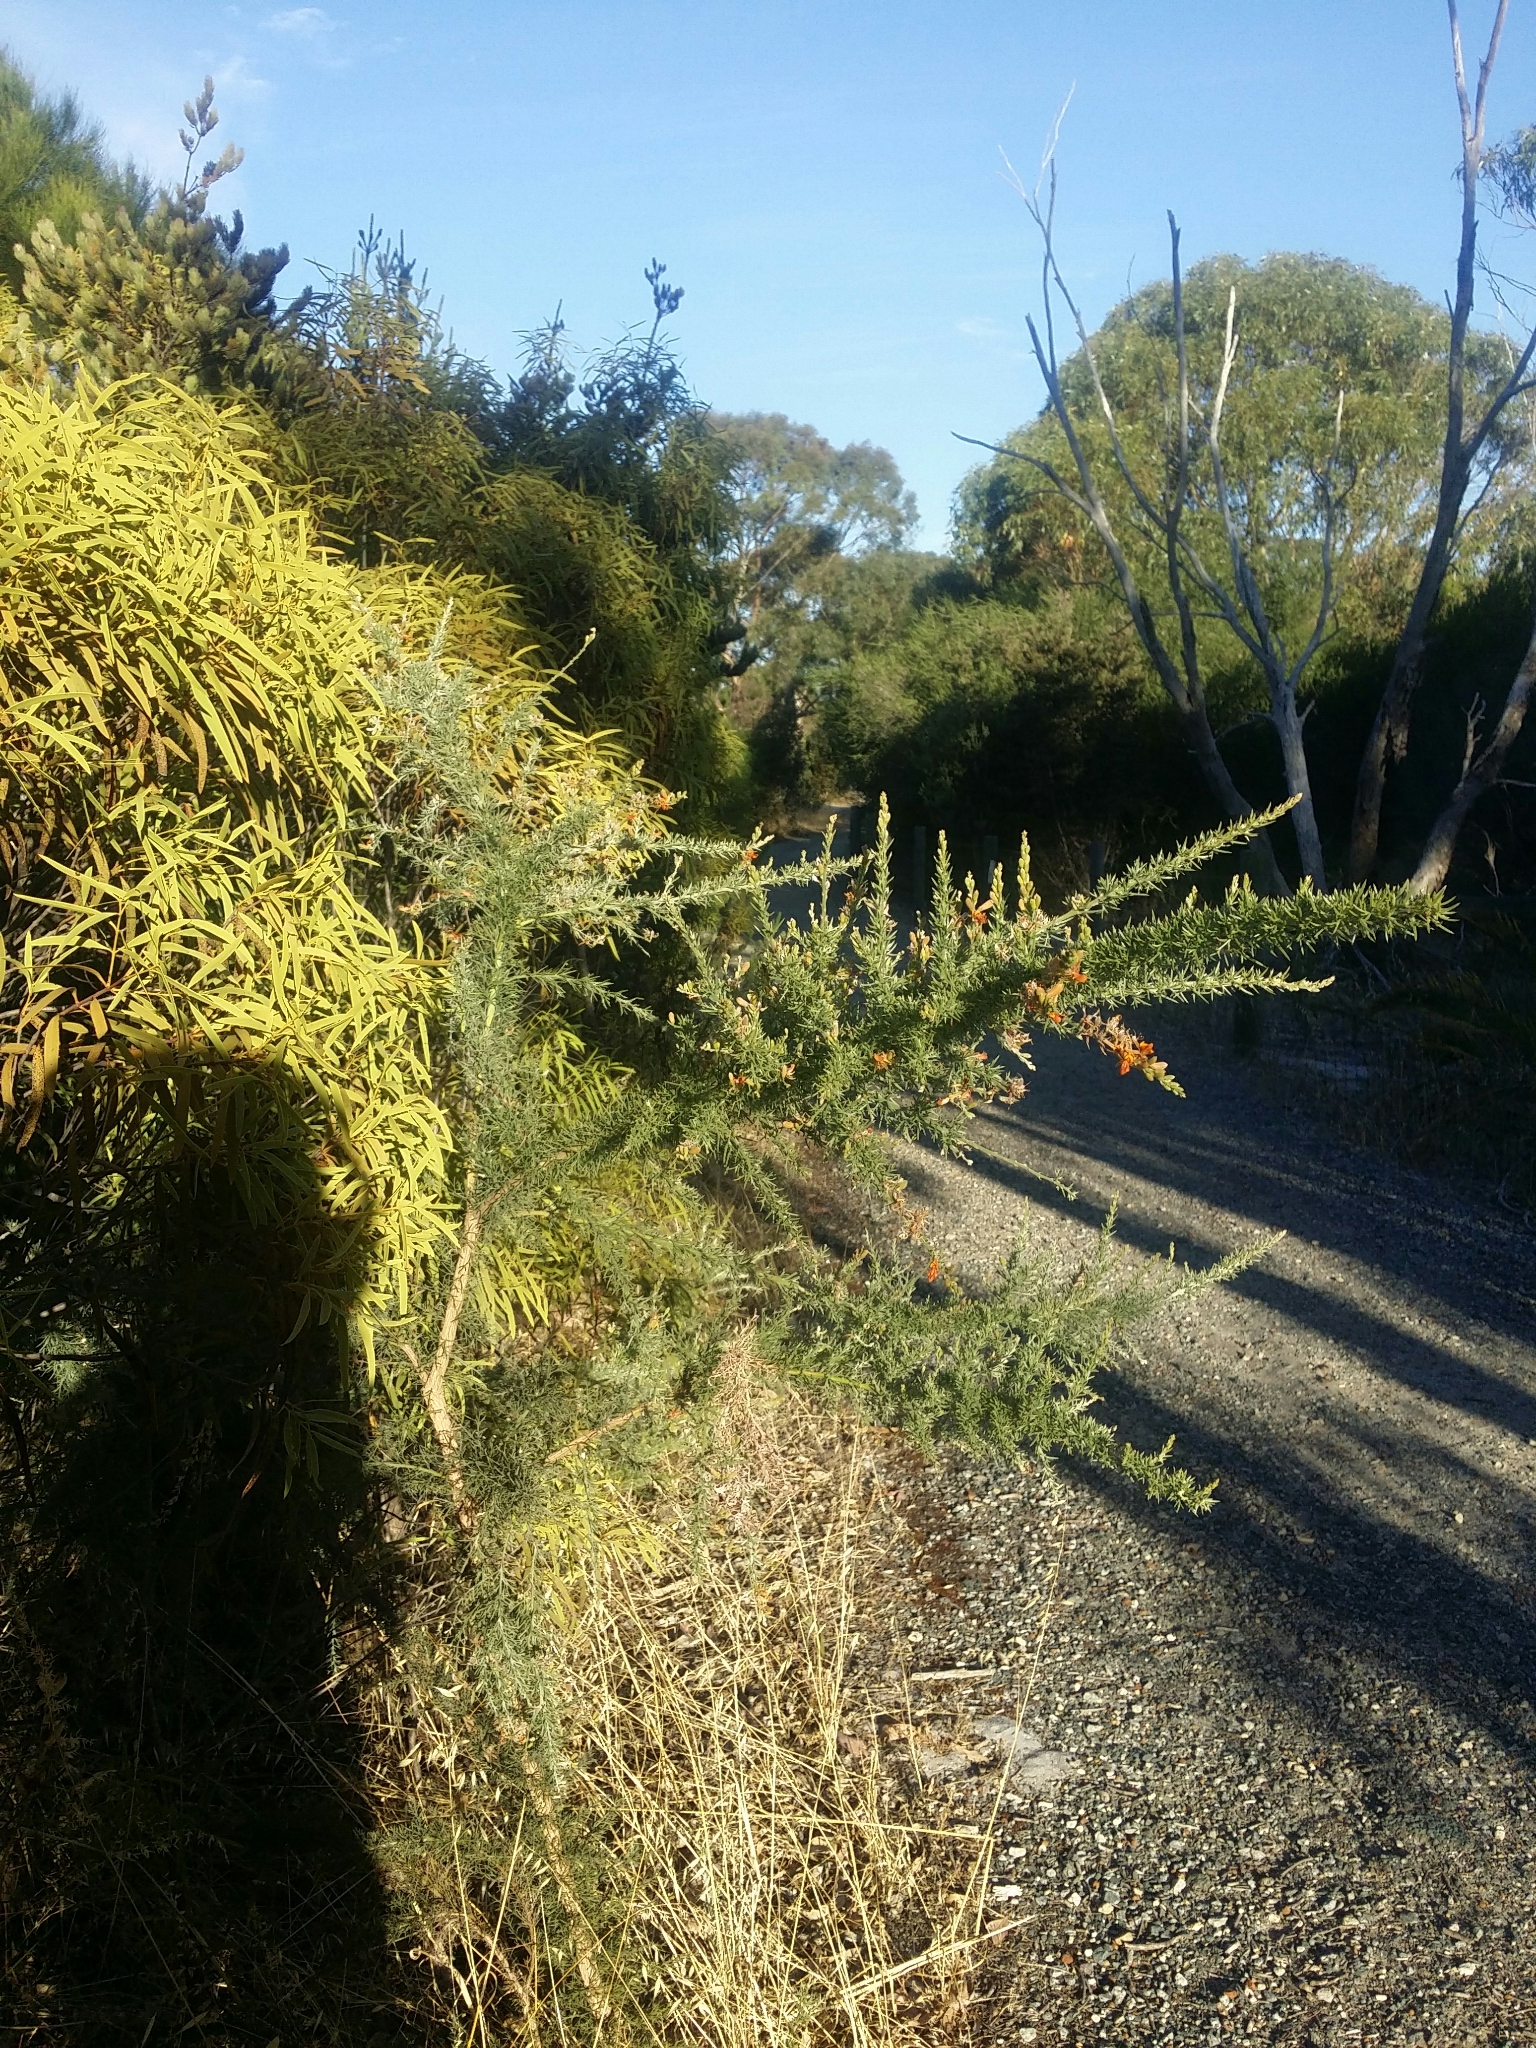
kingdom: Plantae
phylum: Tracheophyta
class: Magnoliopsida
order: Fabales
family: Fabaceae
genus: Jacksonia
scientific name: Jacksonia furcellata
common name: Grey stinkwood
